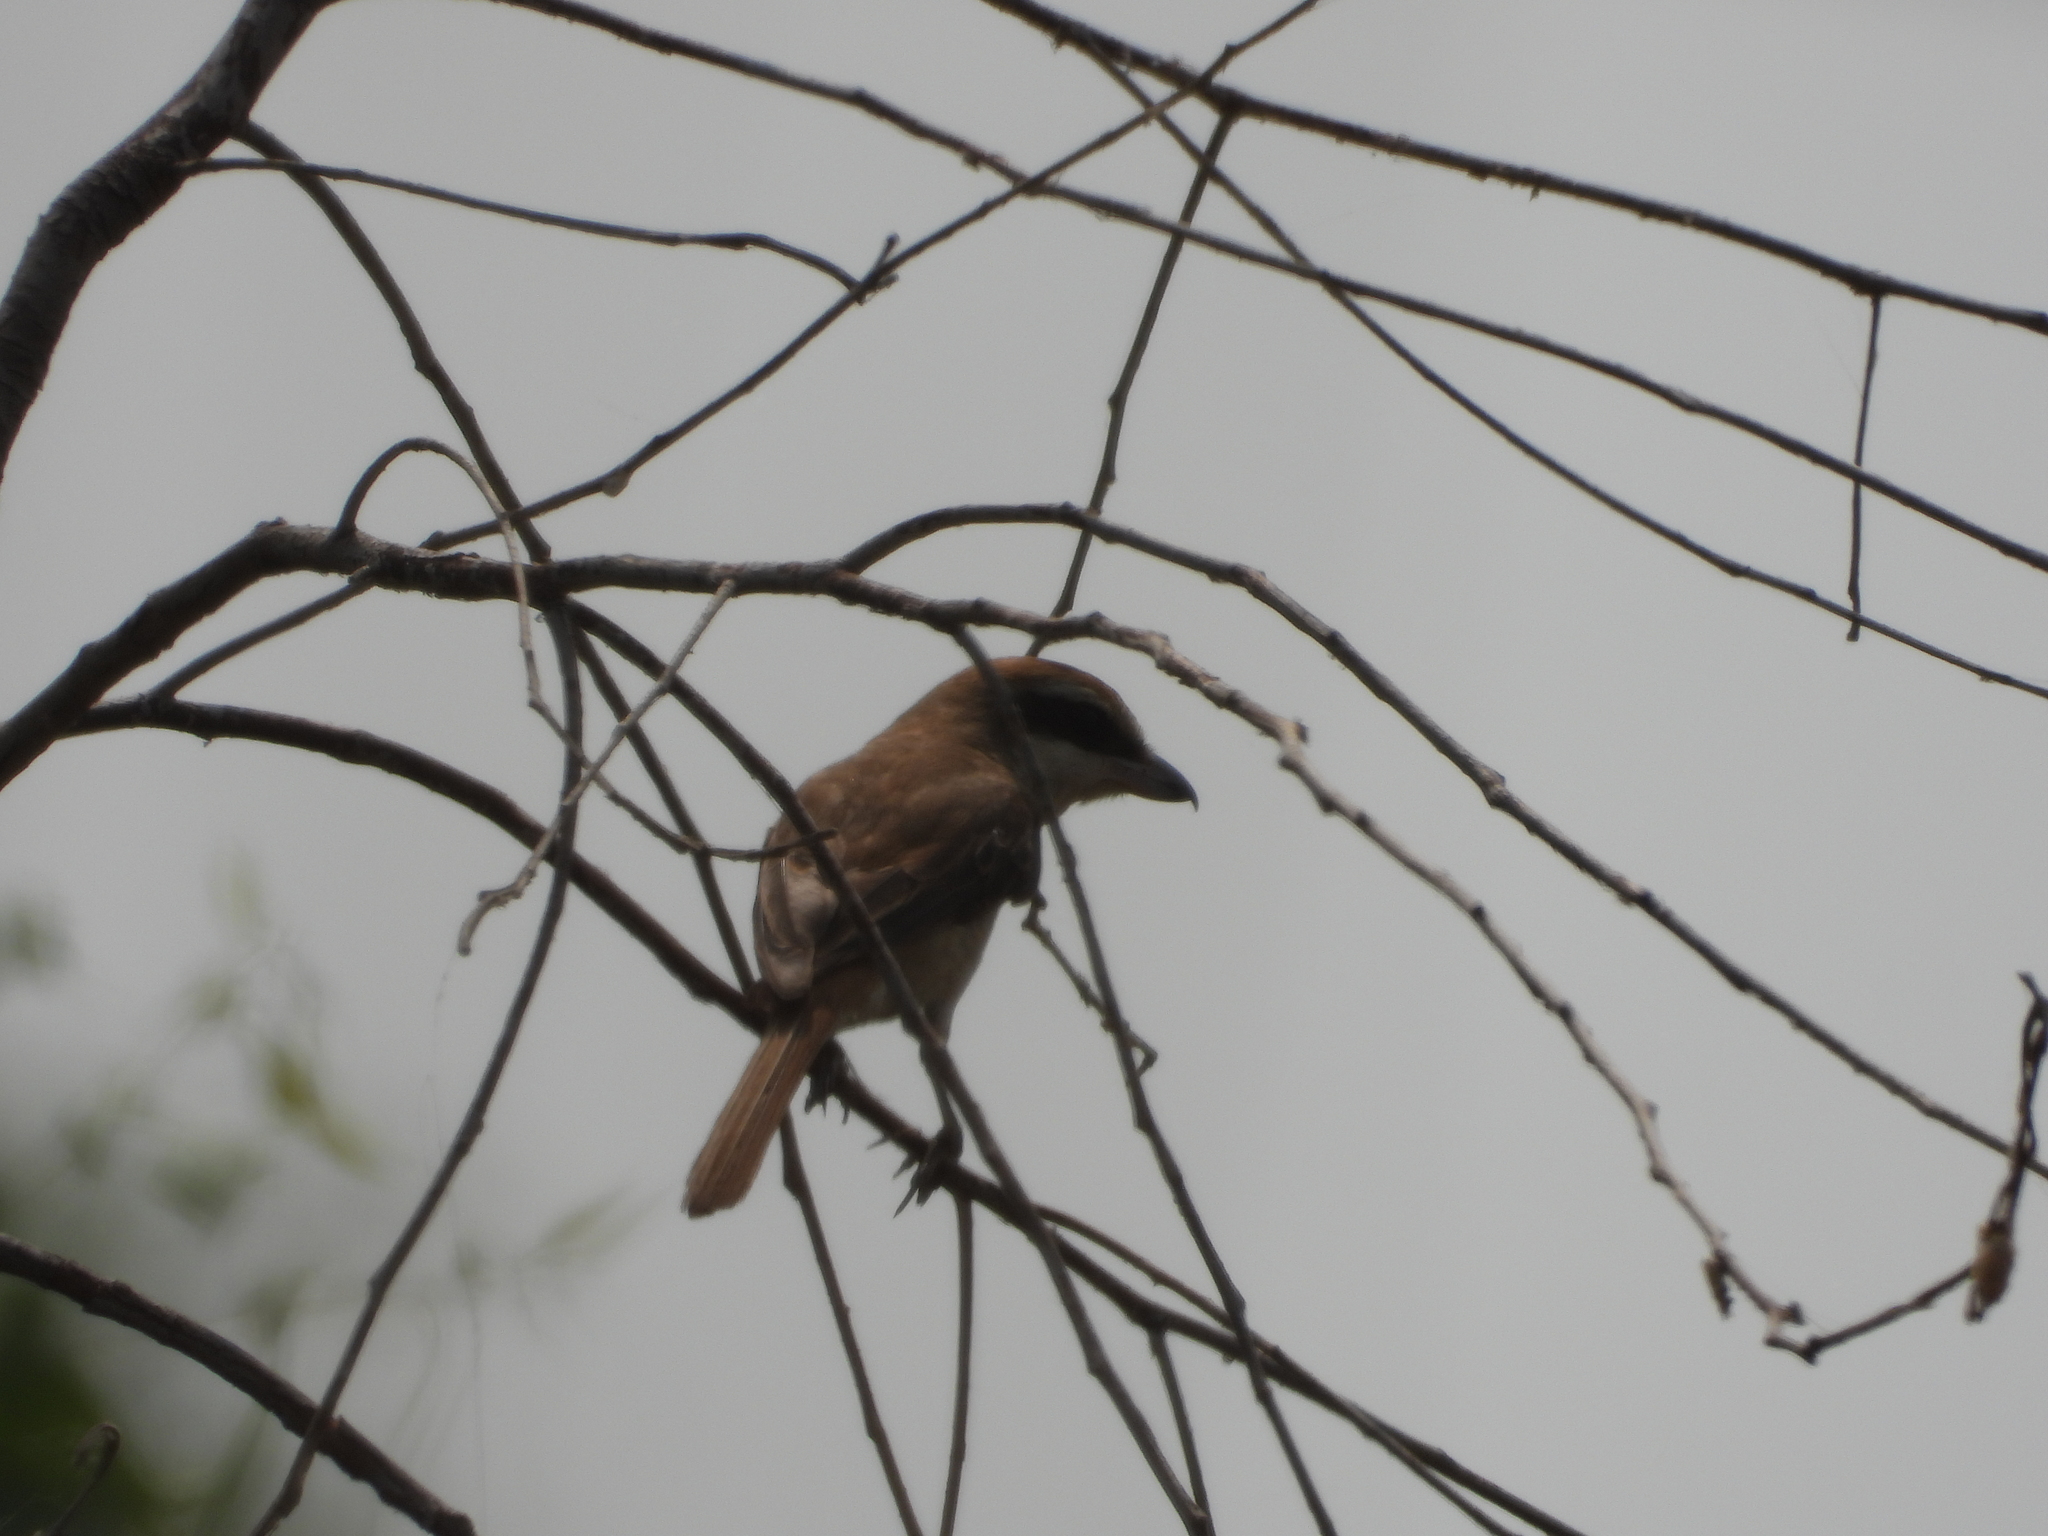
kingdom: Animalia
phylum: Chordata
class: Aves
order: Passeriformes
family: Laniidae
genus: Lanius
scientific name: Lanius cristatus
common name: Brown shrike
